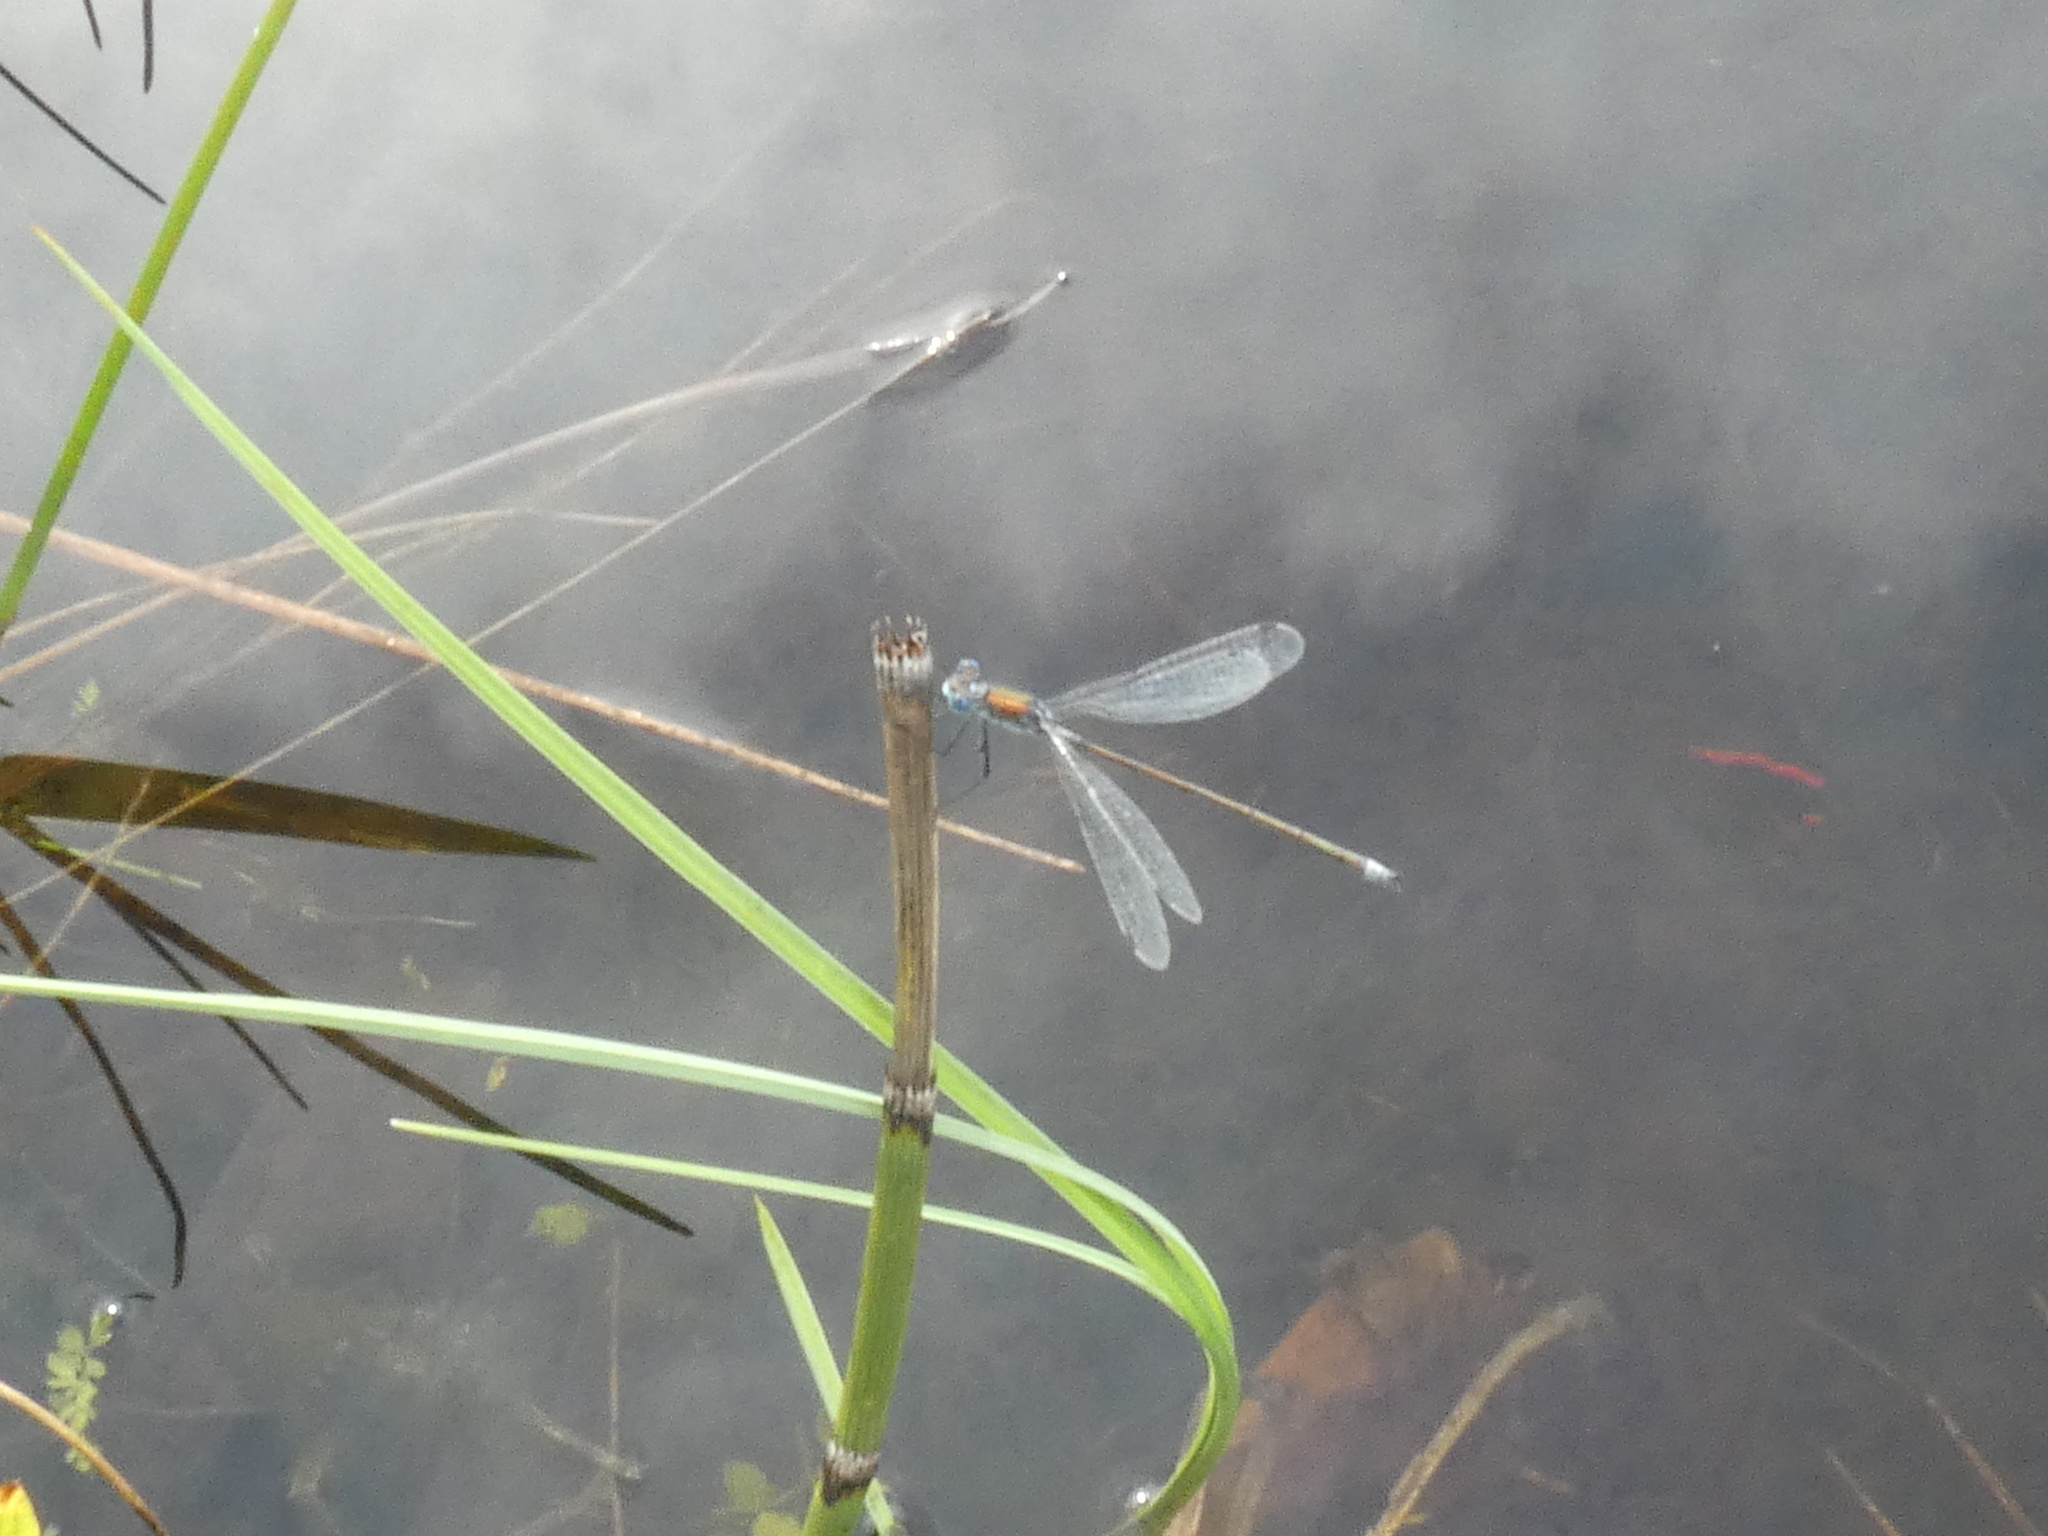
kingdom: Animalia
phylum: Arthropoda
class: Insecta
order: Odonata
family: Lestidae
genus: Lestes
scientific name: Lestes sponsa
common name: Common spreadwing
